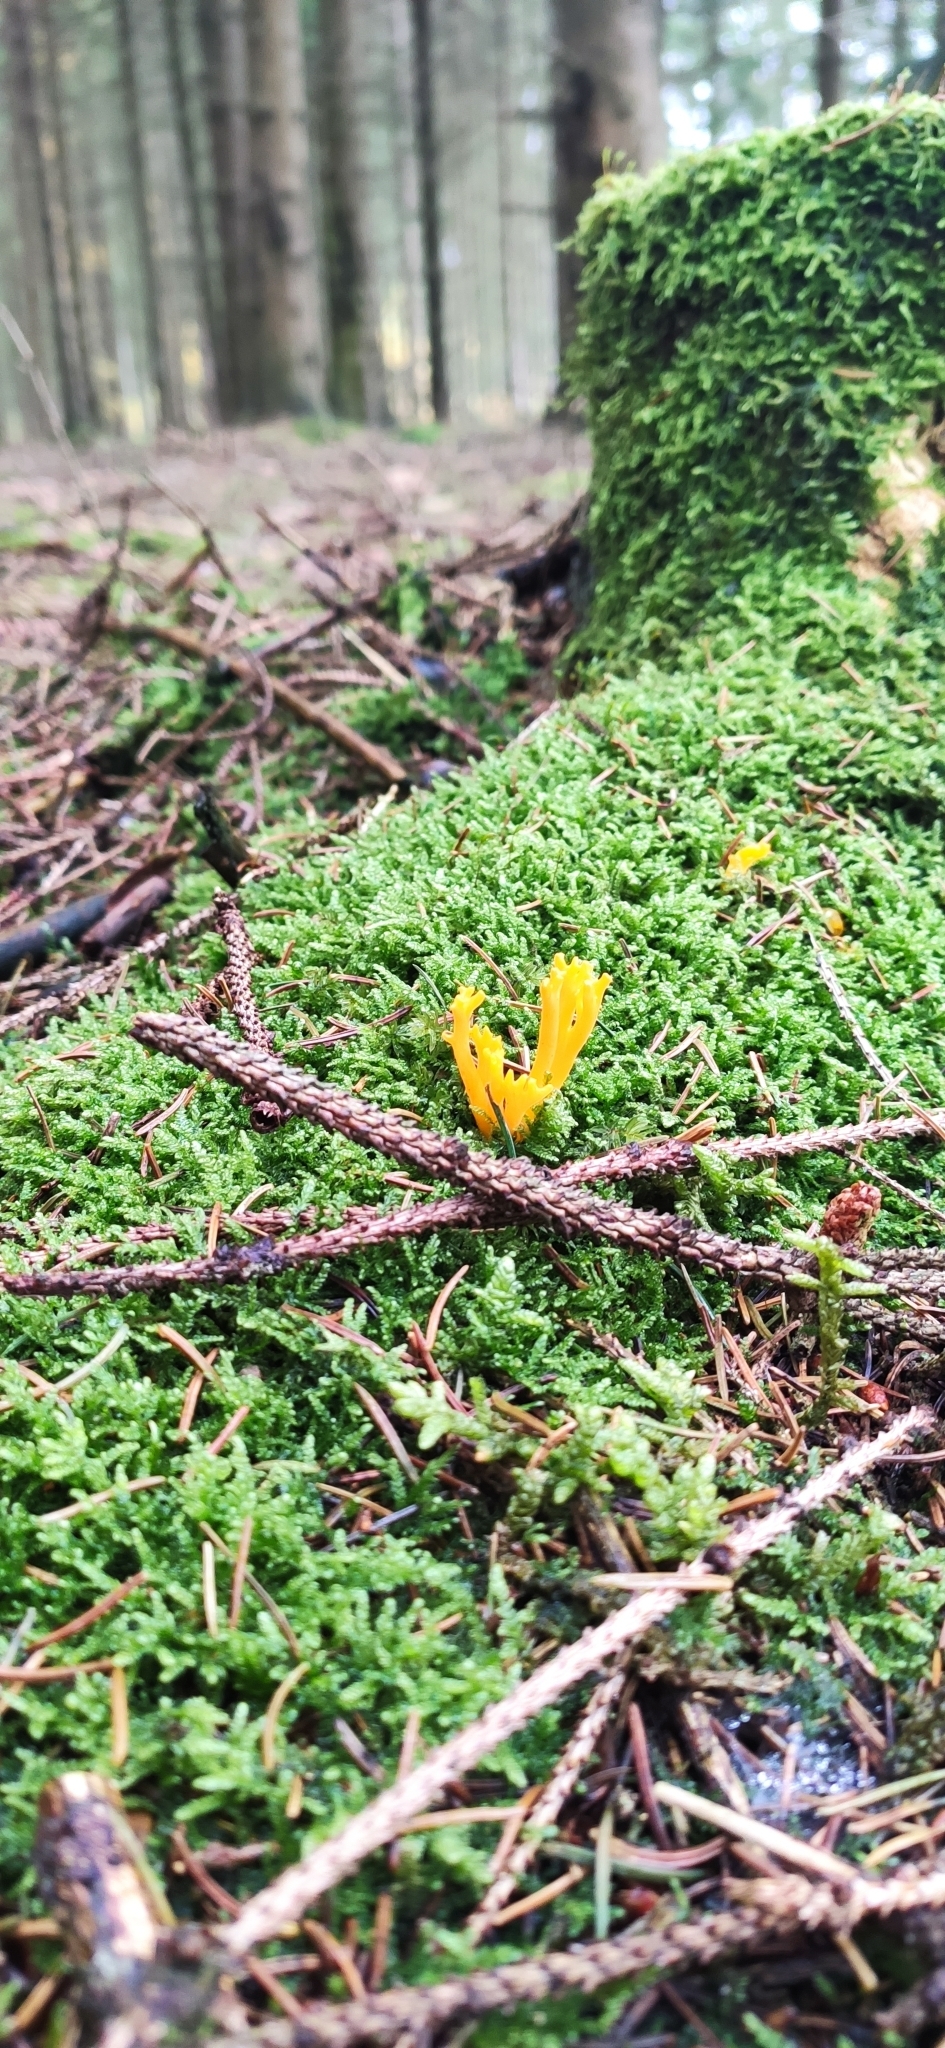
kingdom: Fungi
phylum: Basidiomycota
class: Dacrymycetes
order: Dacrymycetales
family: Dacrymycetaceae
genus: Calocera
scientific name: Calocera viscosa
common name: Yellow stagshorn
